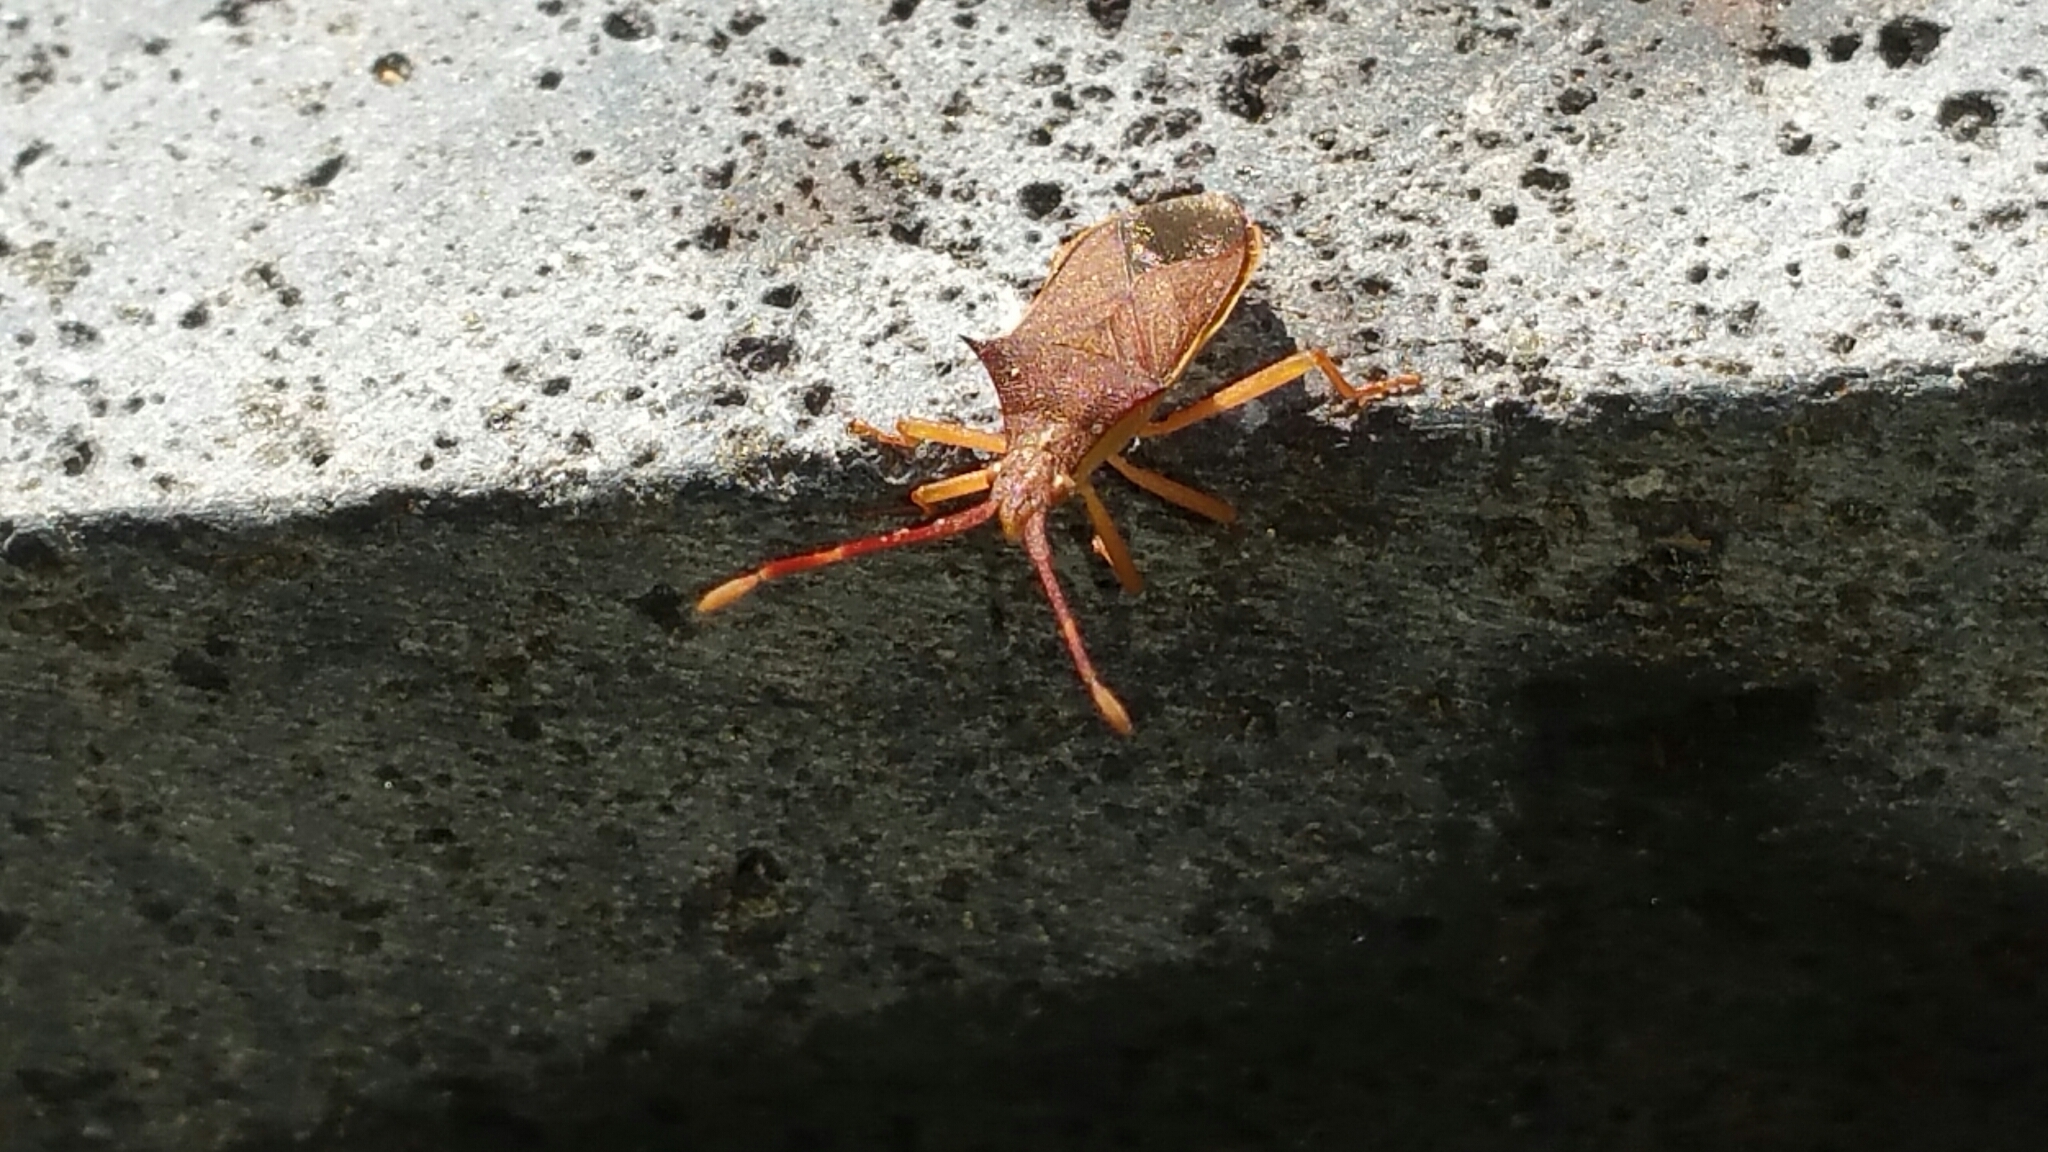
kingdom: Animalia
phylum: Arthropoda
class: Insecta
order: Hemiptera
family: Coreidae
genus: Gonocerus
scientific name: Gonocerus insidiator
